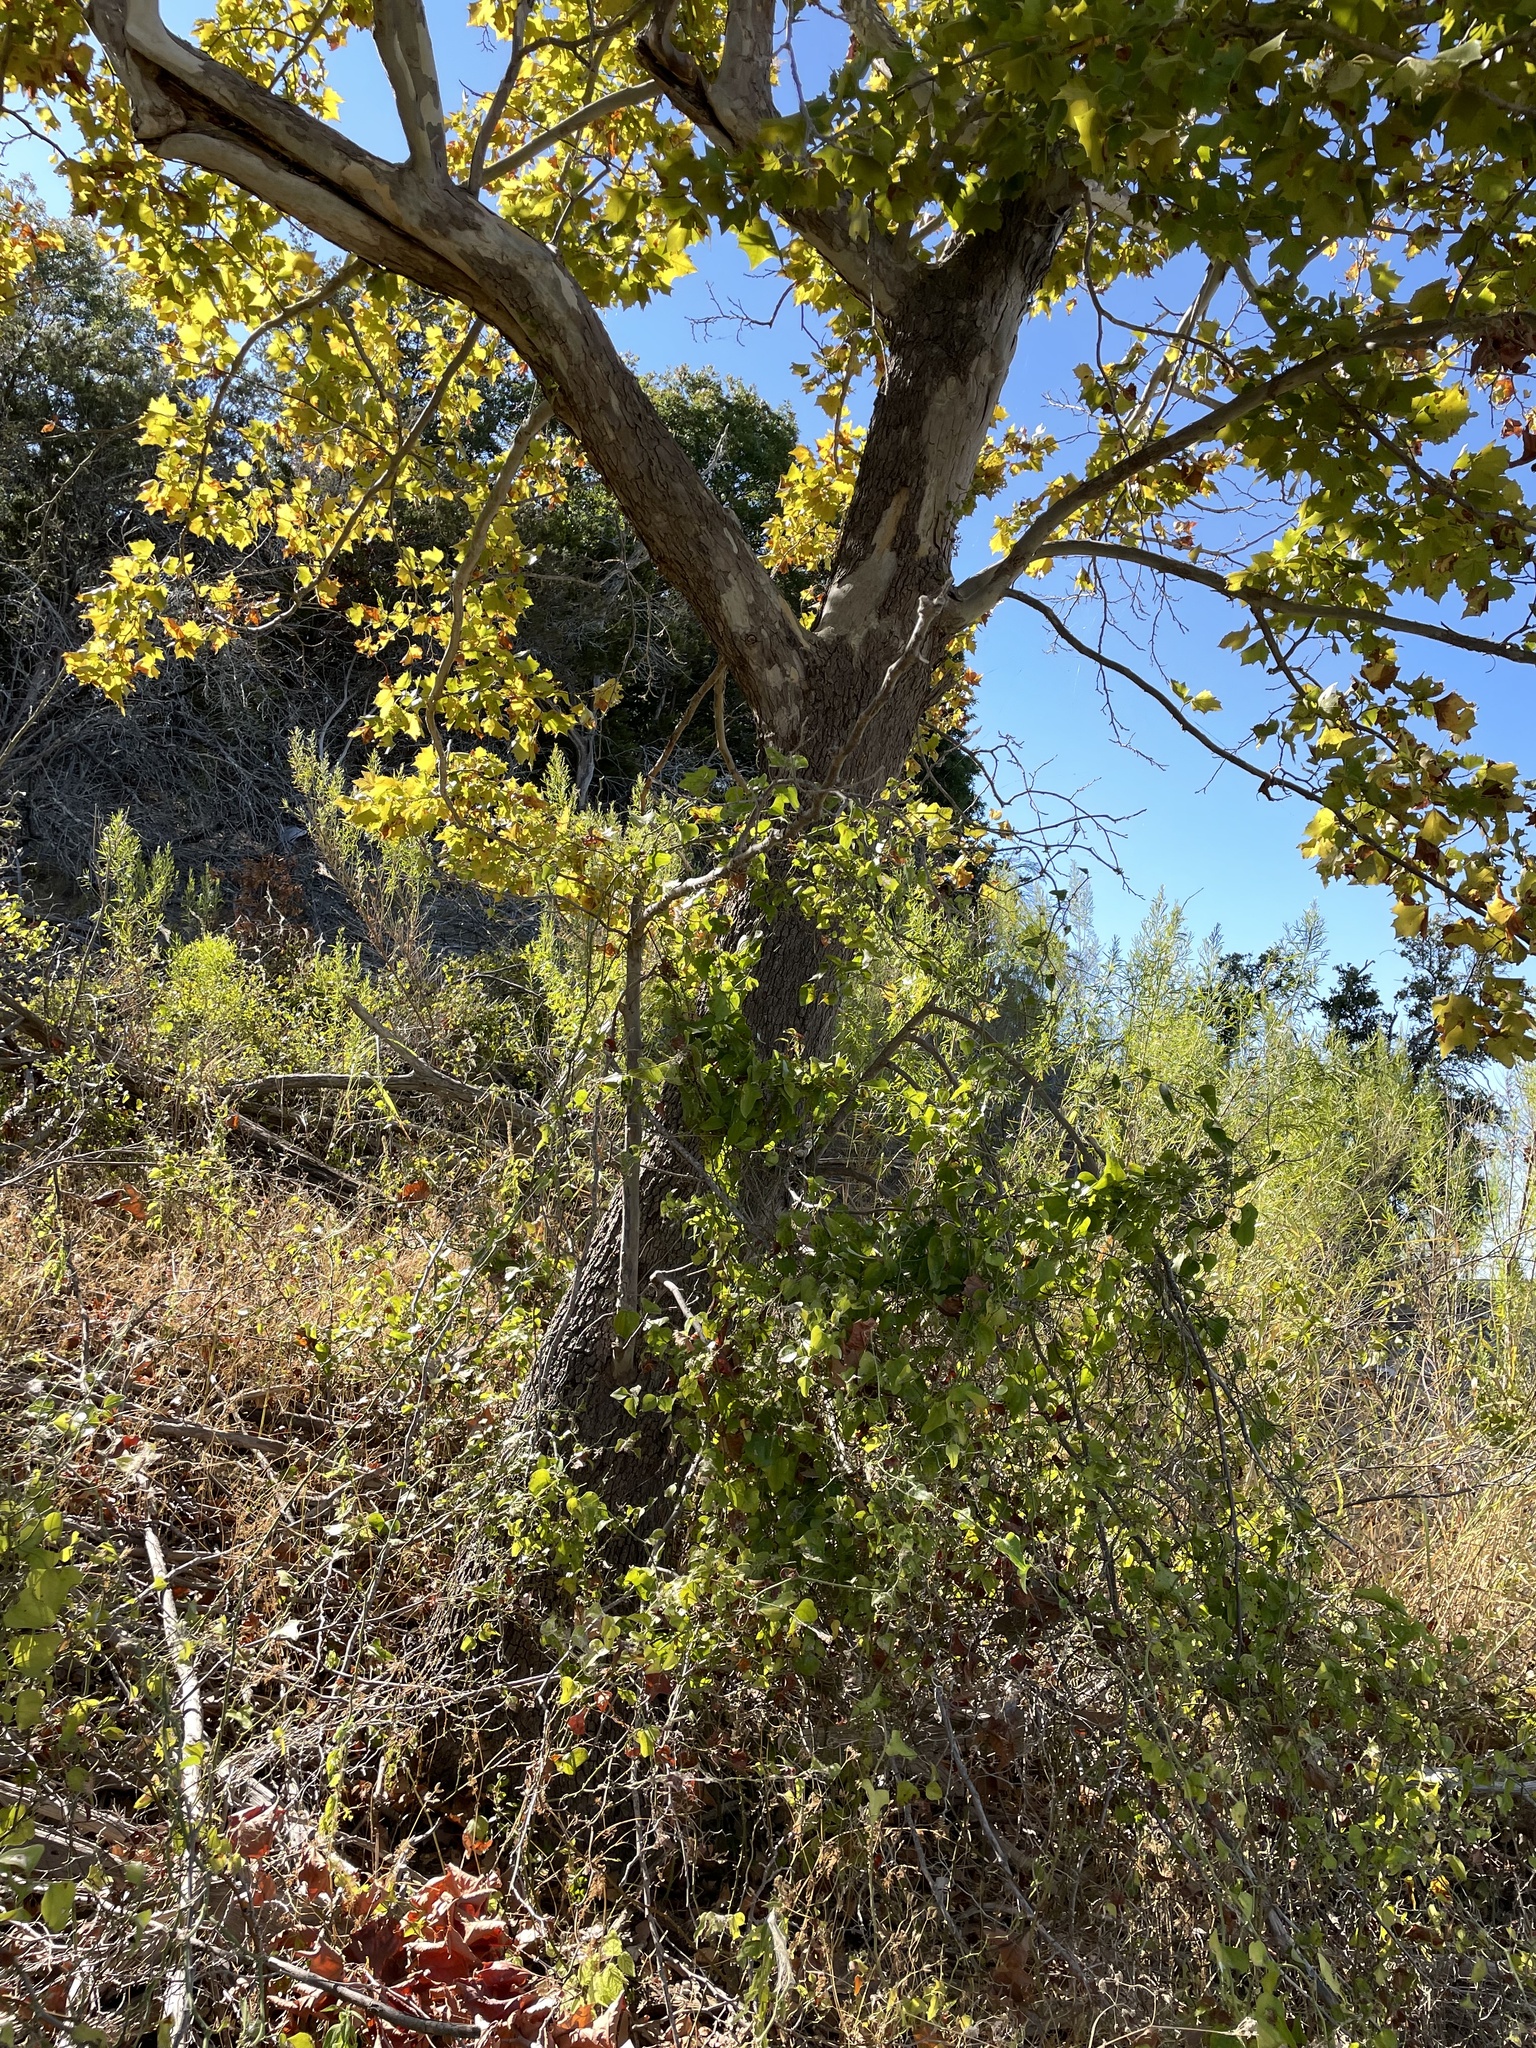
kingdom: Plantae
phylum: Tracheophyta
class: Magnoliopsida
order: Proteales
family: Platanaceae
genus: Platanus
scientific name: Platanus occidentalis
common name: American sycamore
